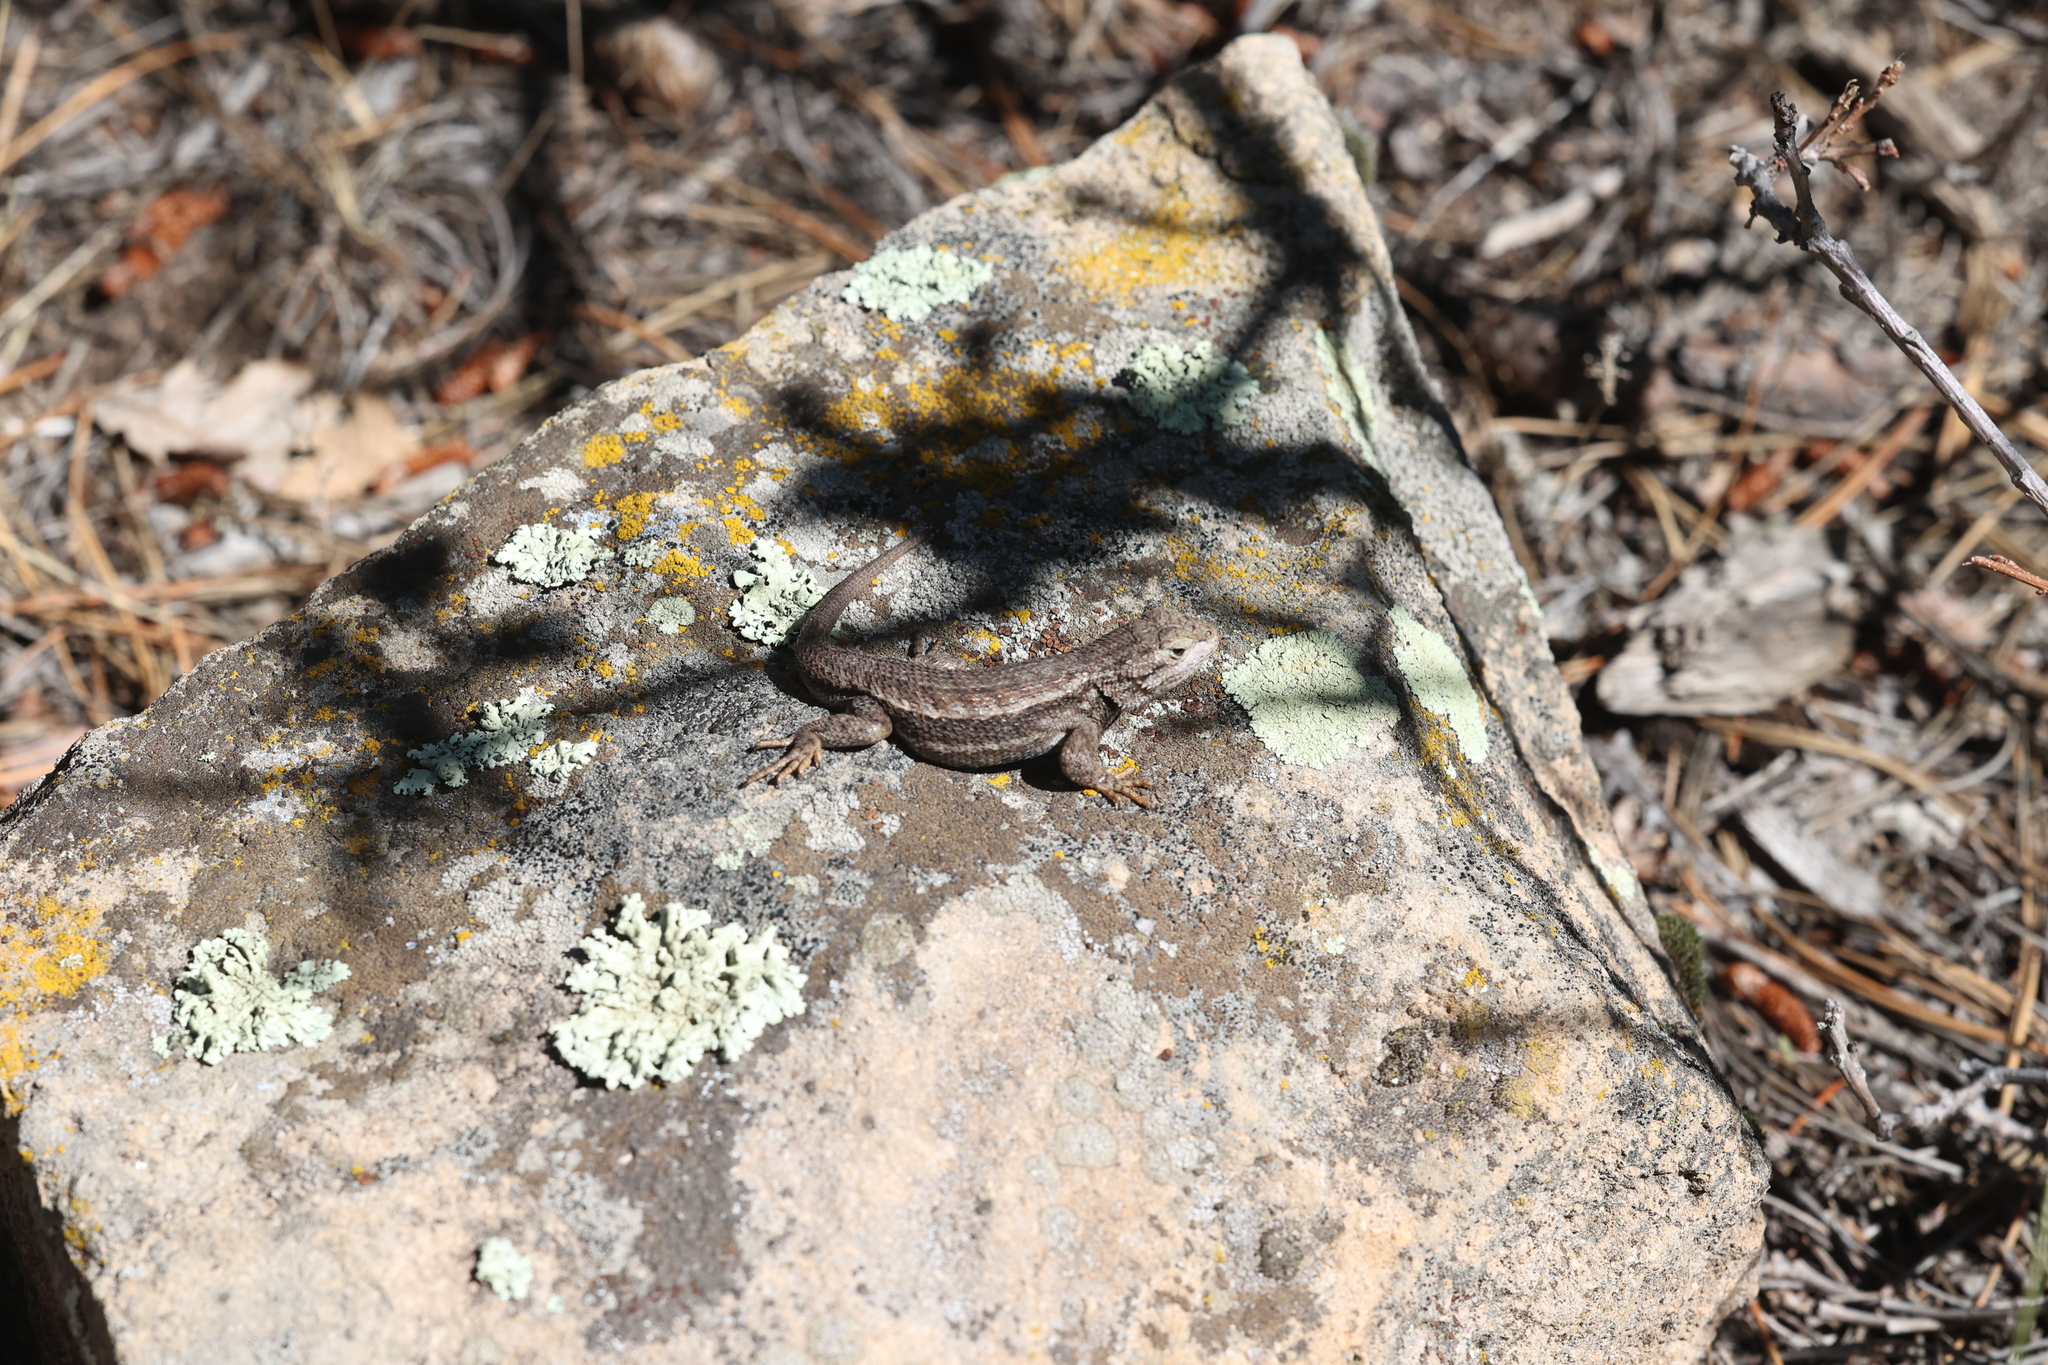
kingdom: Animalia
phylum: Chordata
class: Squamata
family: Phrynosomatidae
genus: Sceloporus
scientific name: Sceloporus tristichus
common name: Plateau fence lizard
